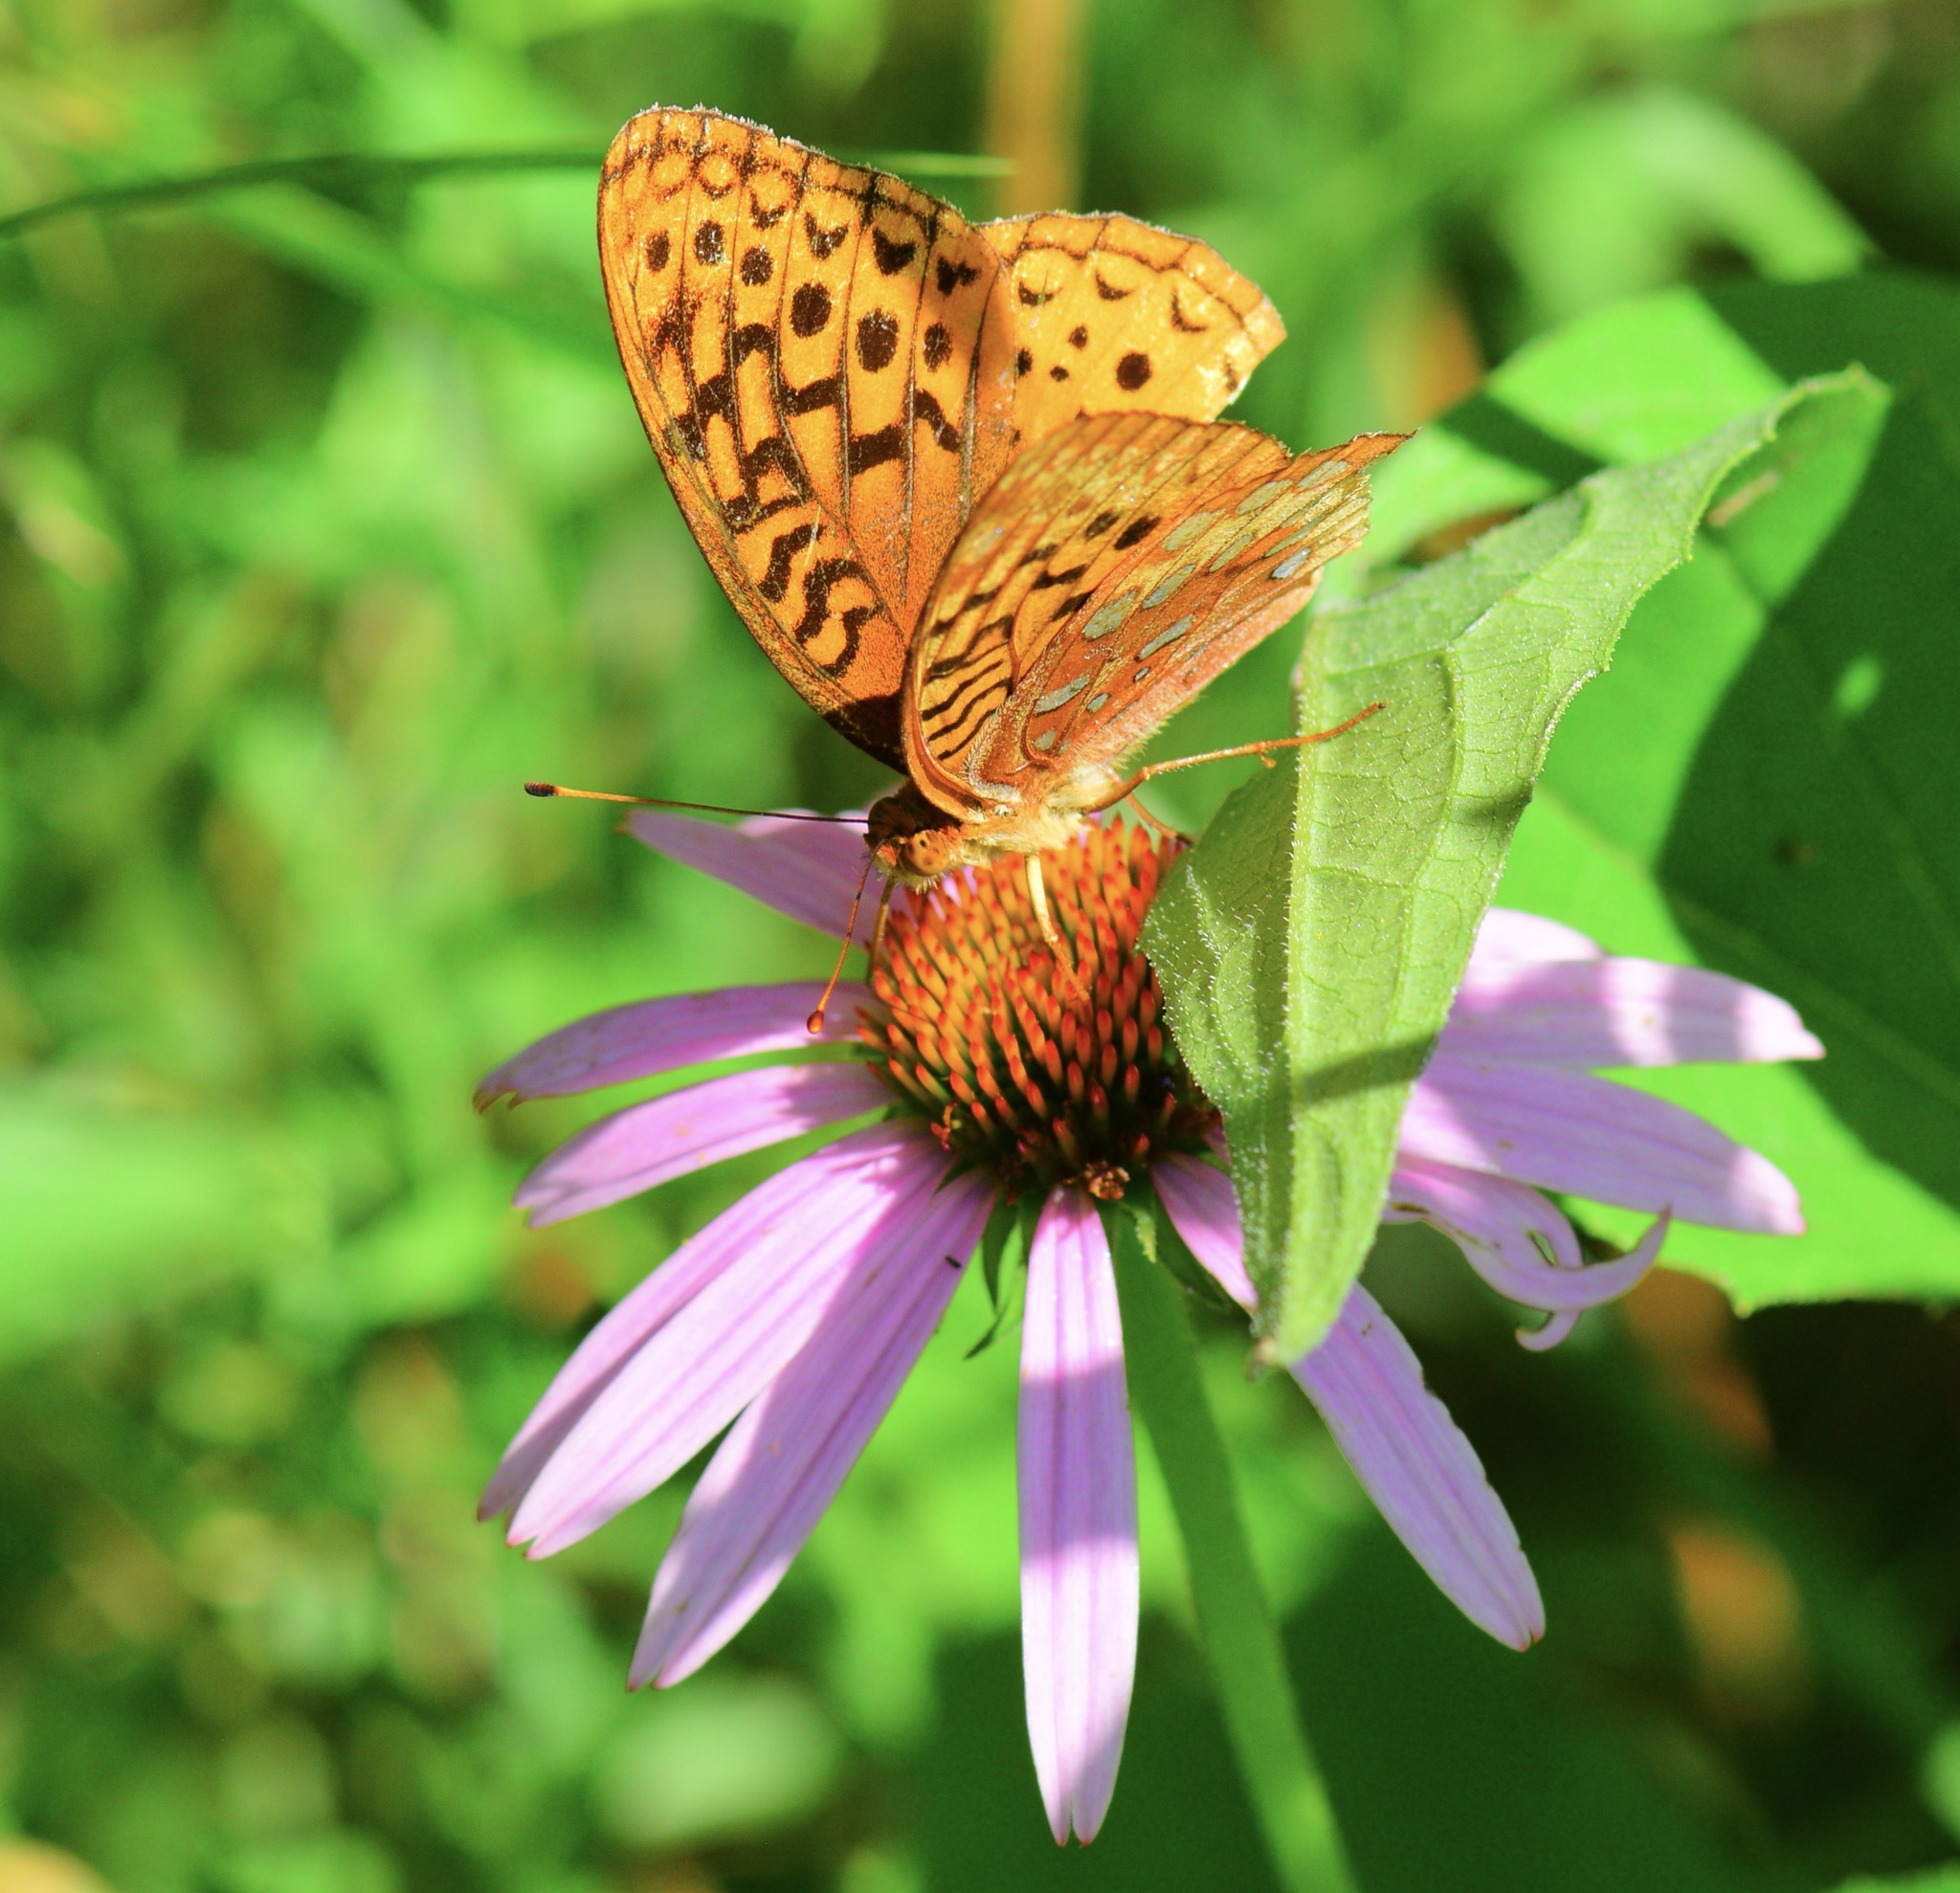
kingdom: Animalia
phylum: Arthropoda
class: Insecta
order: Lepidoptera
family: Nymphalidae
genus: Speyeria
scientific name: Speyeria cybele
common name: Great spangled fritillary
